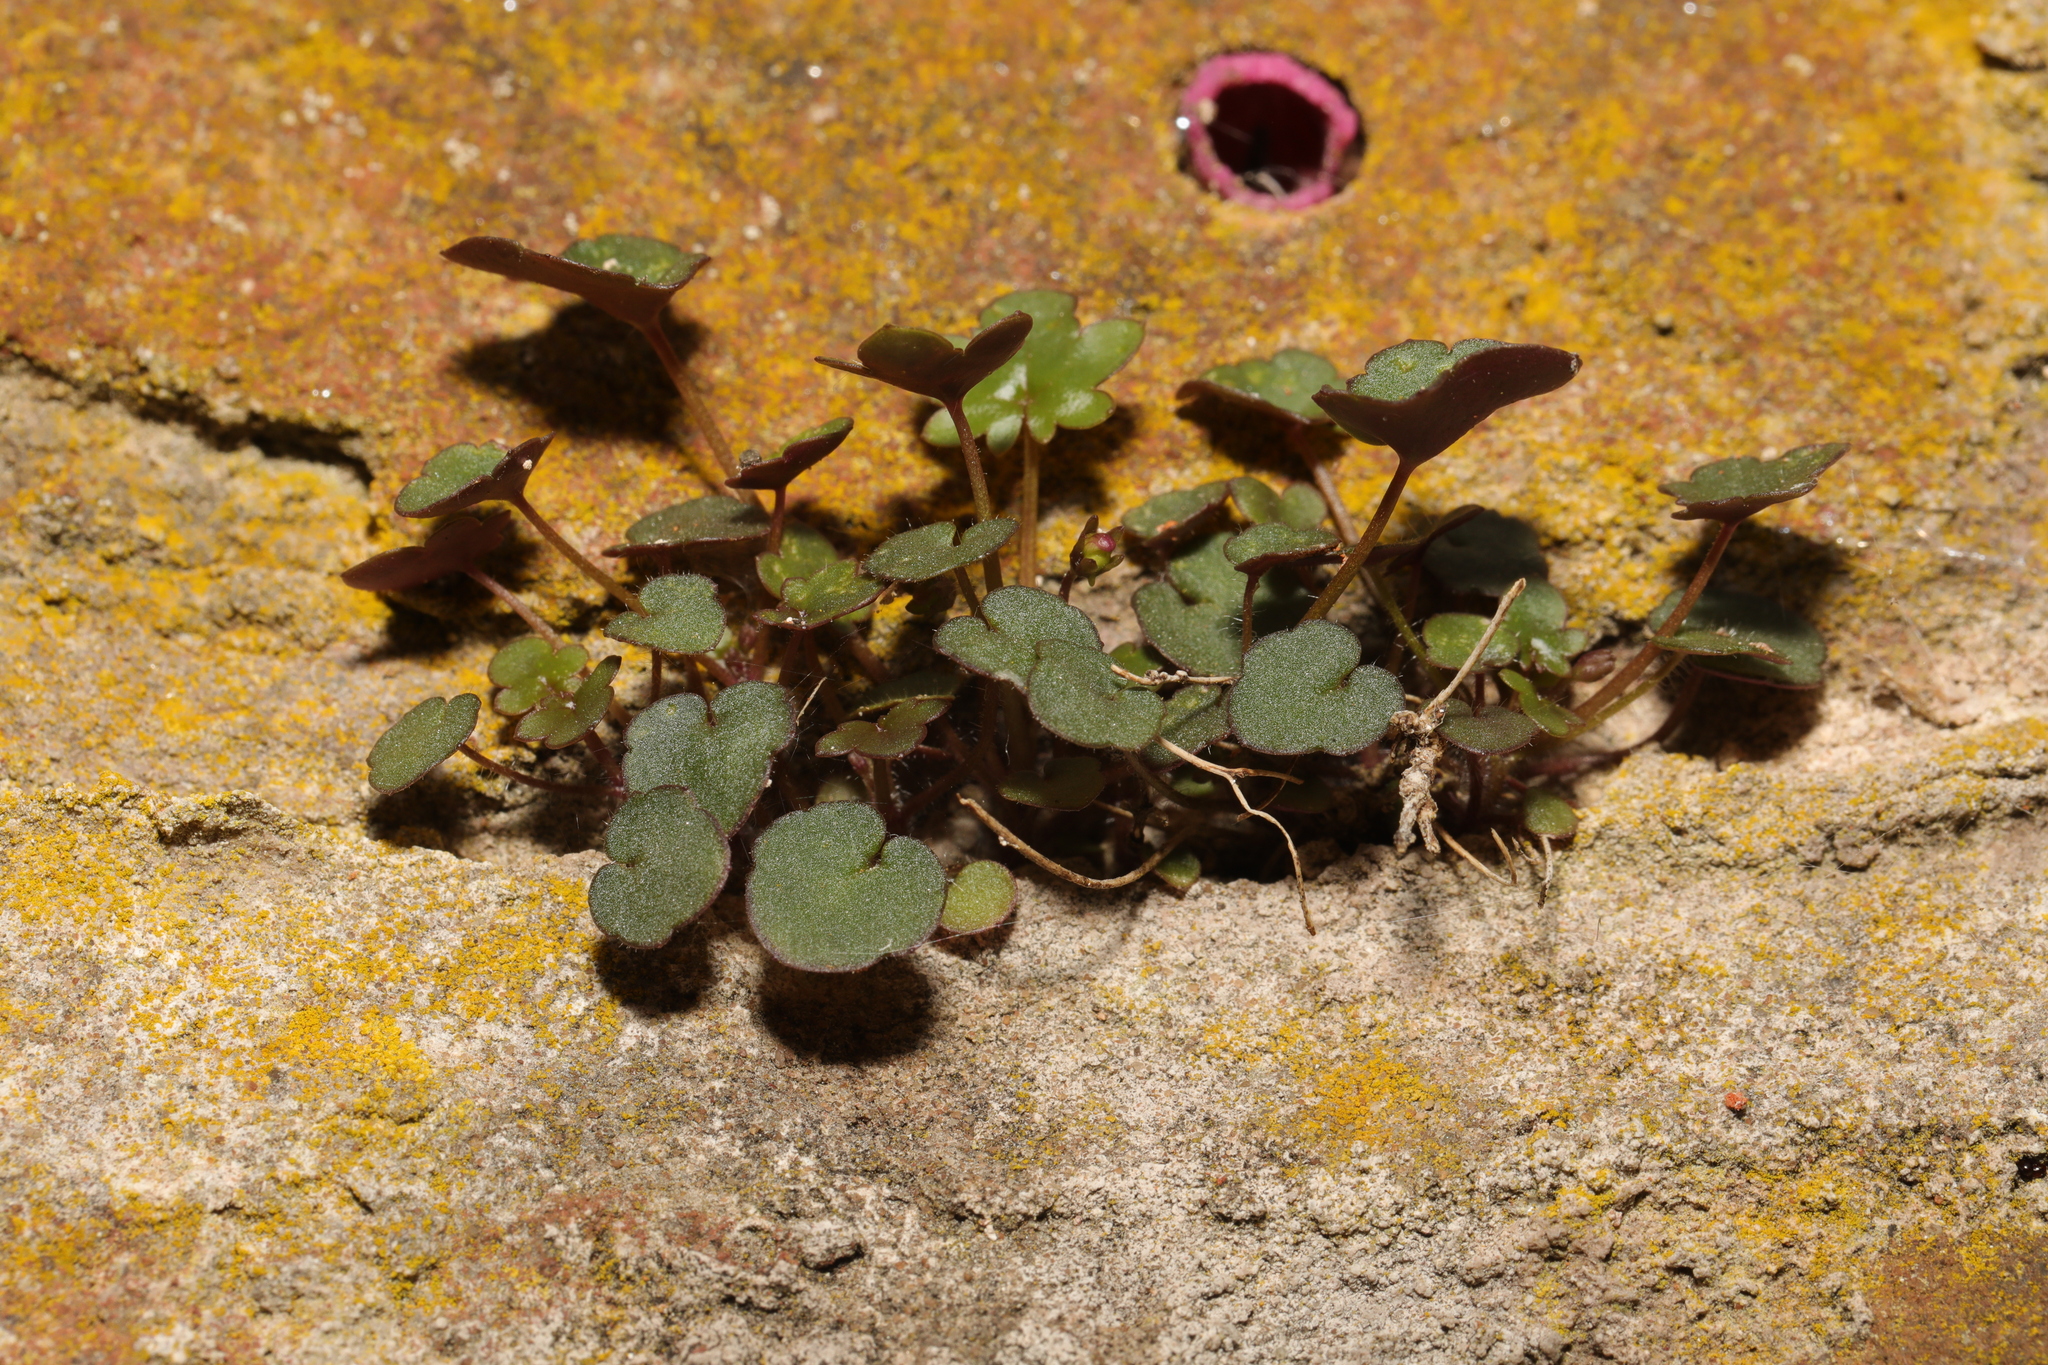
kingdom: Plantae
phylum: Tracheophyta
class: Magnoliopsida
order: Lamiales
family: Plantaginaceae
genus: Cymbalaria
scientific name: Cymbalaria muralis
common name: Ivy-leaved toadflax
